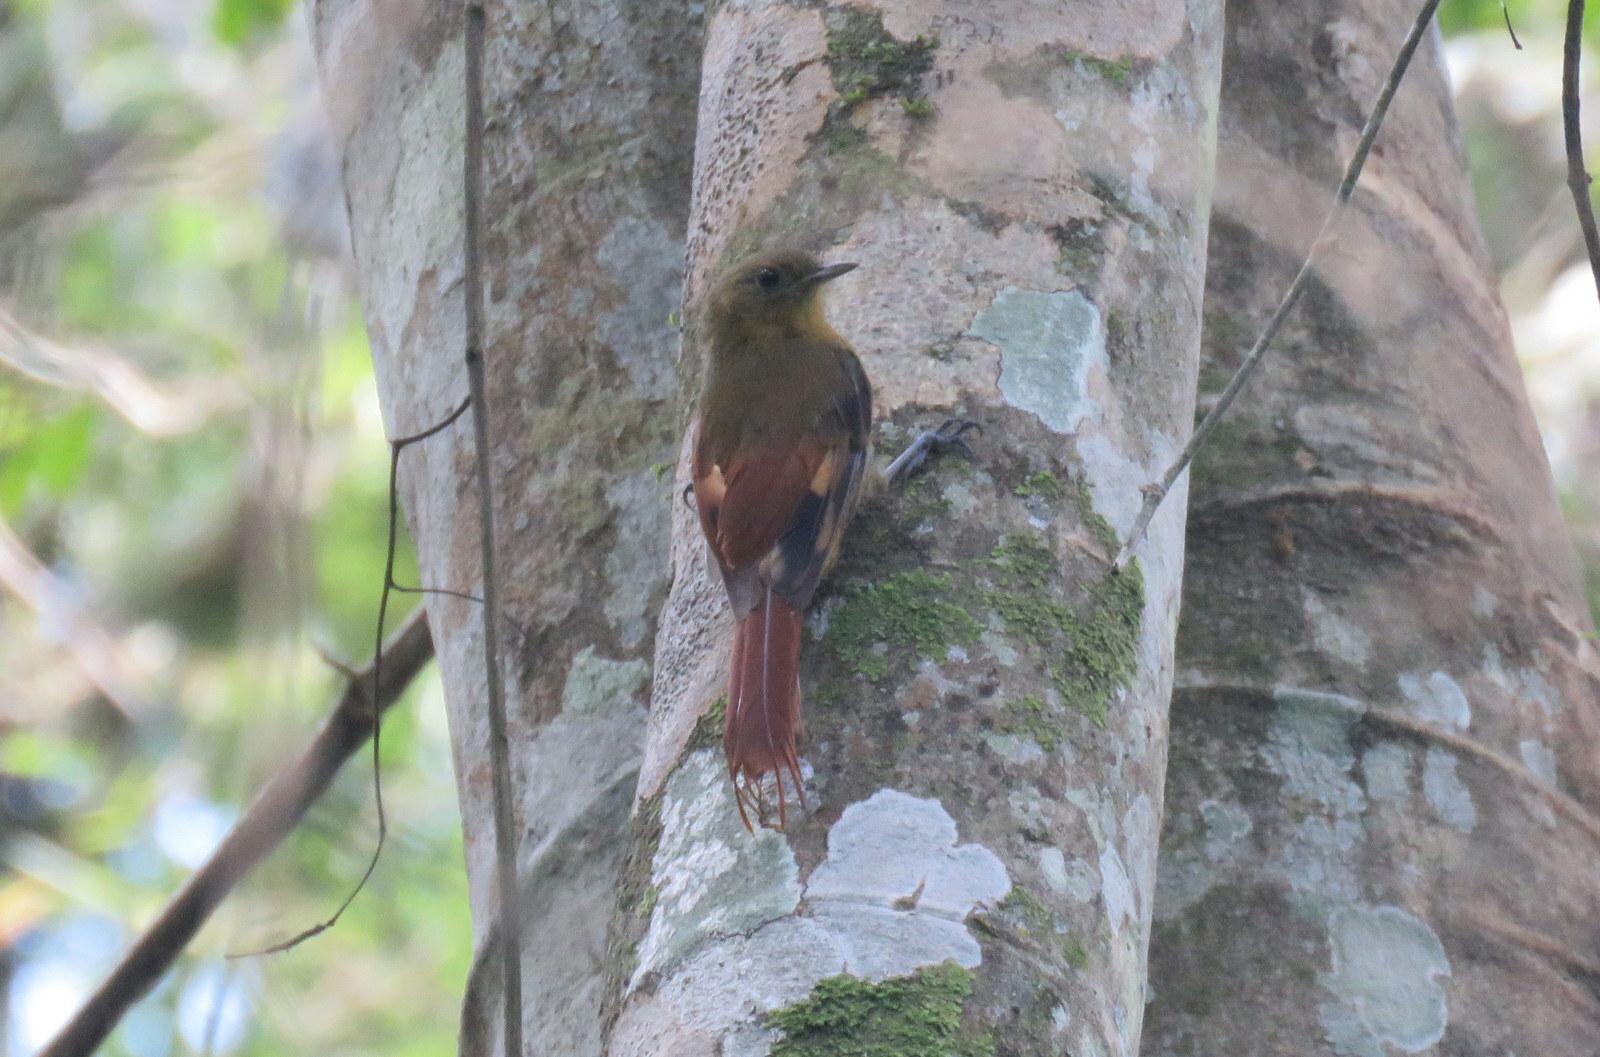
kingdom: Animalia
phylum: Chordata
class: Aves
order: Passeriformes
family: Furnariidae
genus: Sittasomus
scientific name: Sittasomus griseicapillus
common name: Olivaceous woodcreeper
